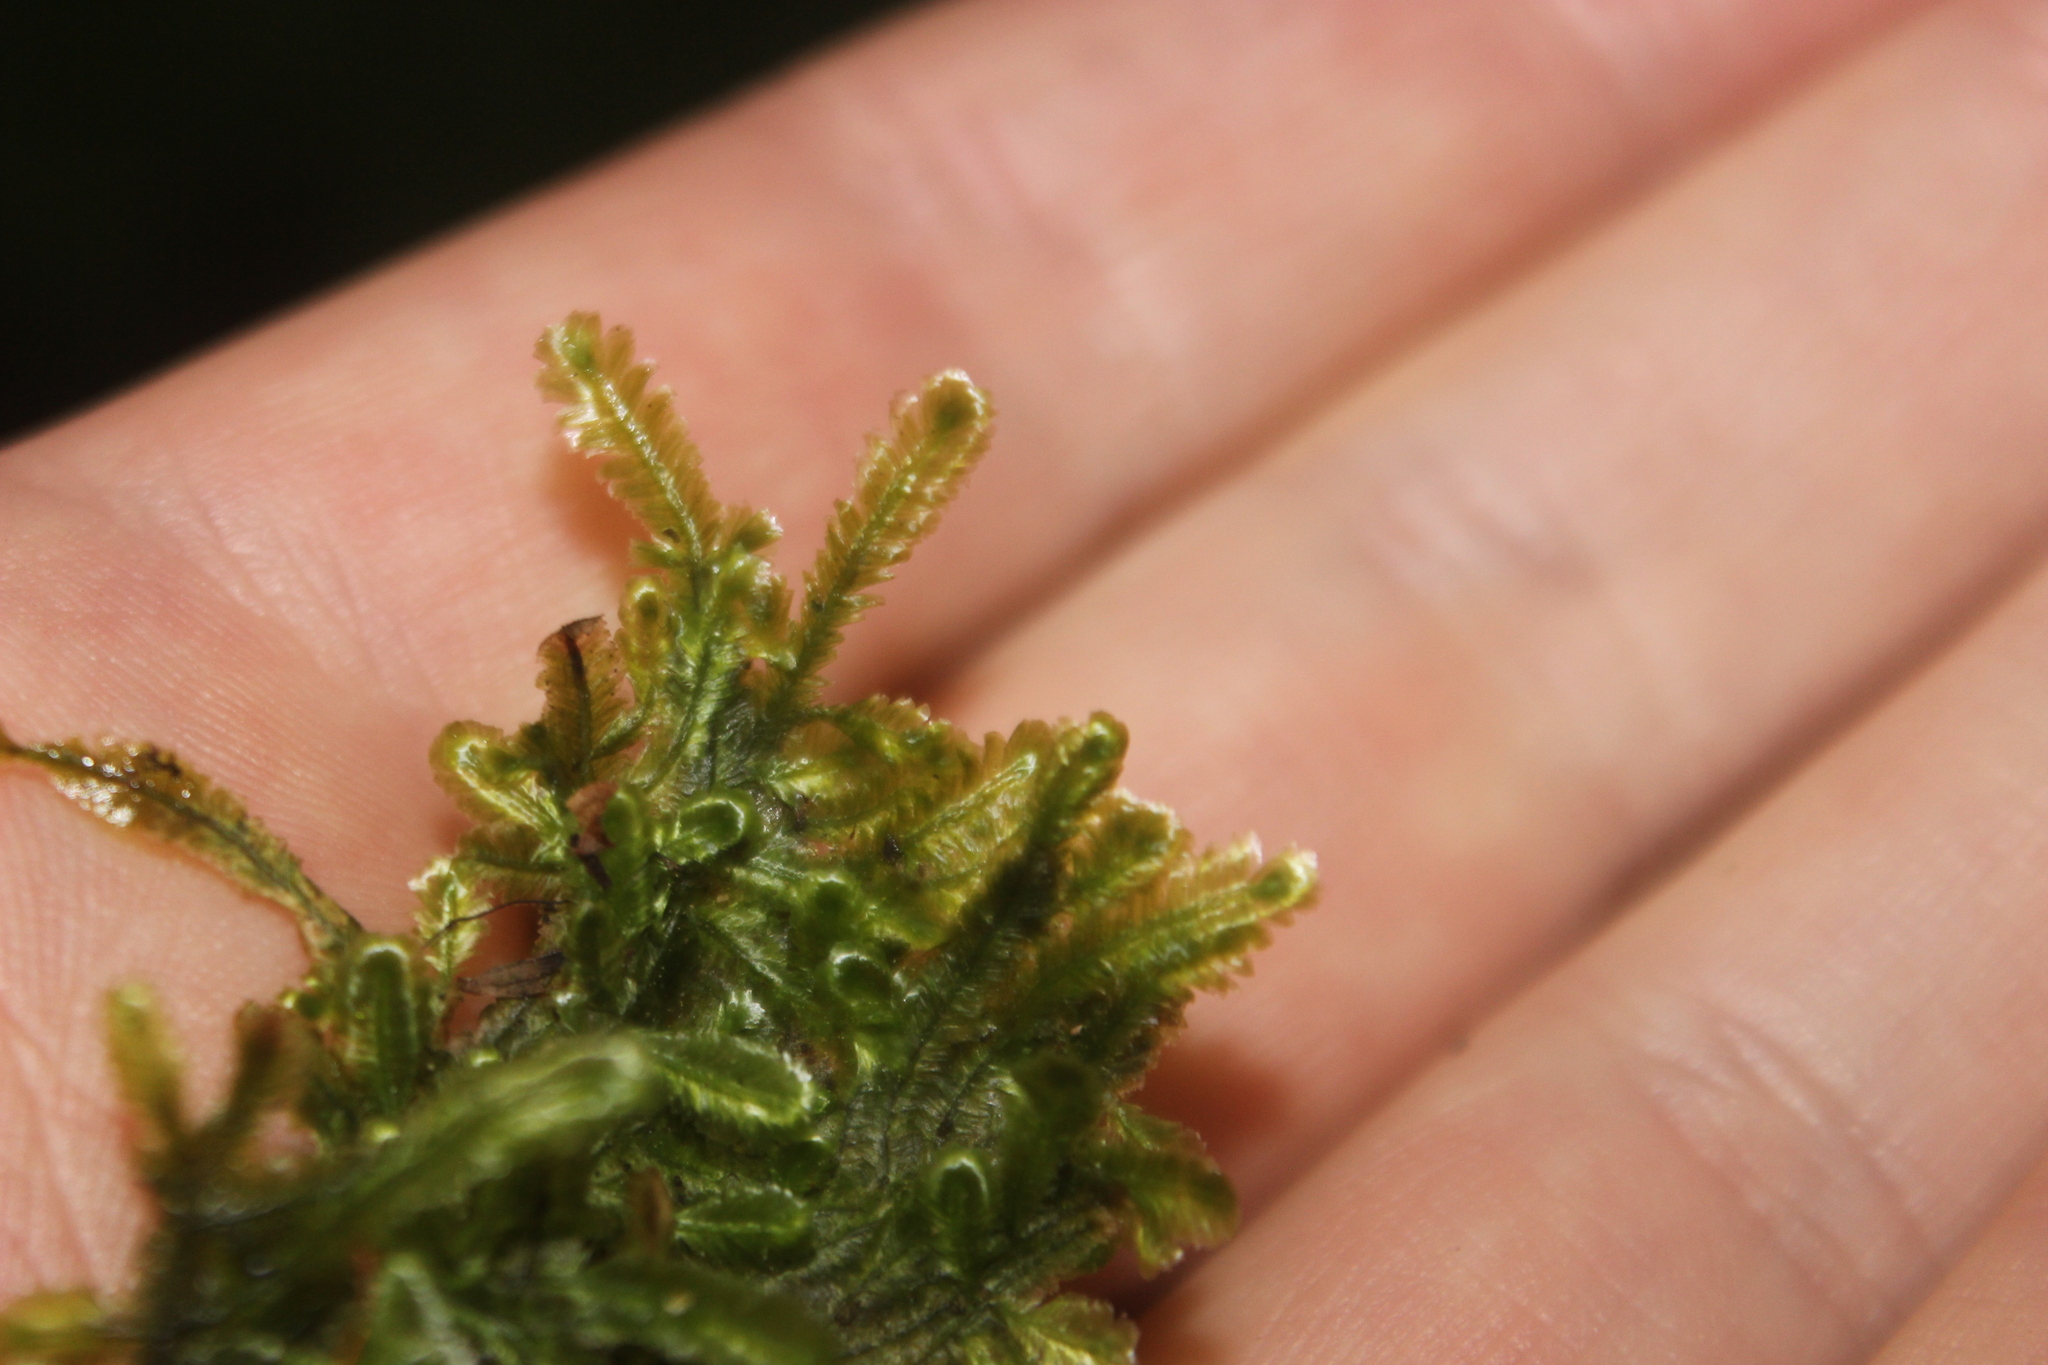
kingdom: Plantae
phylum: Bryophyta
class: Bryopsida
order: Hypnales
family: Lembophyllaceae
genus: Margrethypnum
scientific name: Margrethypnum falcifolium
